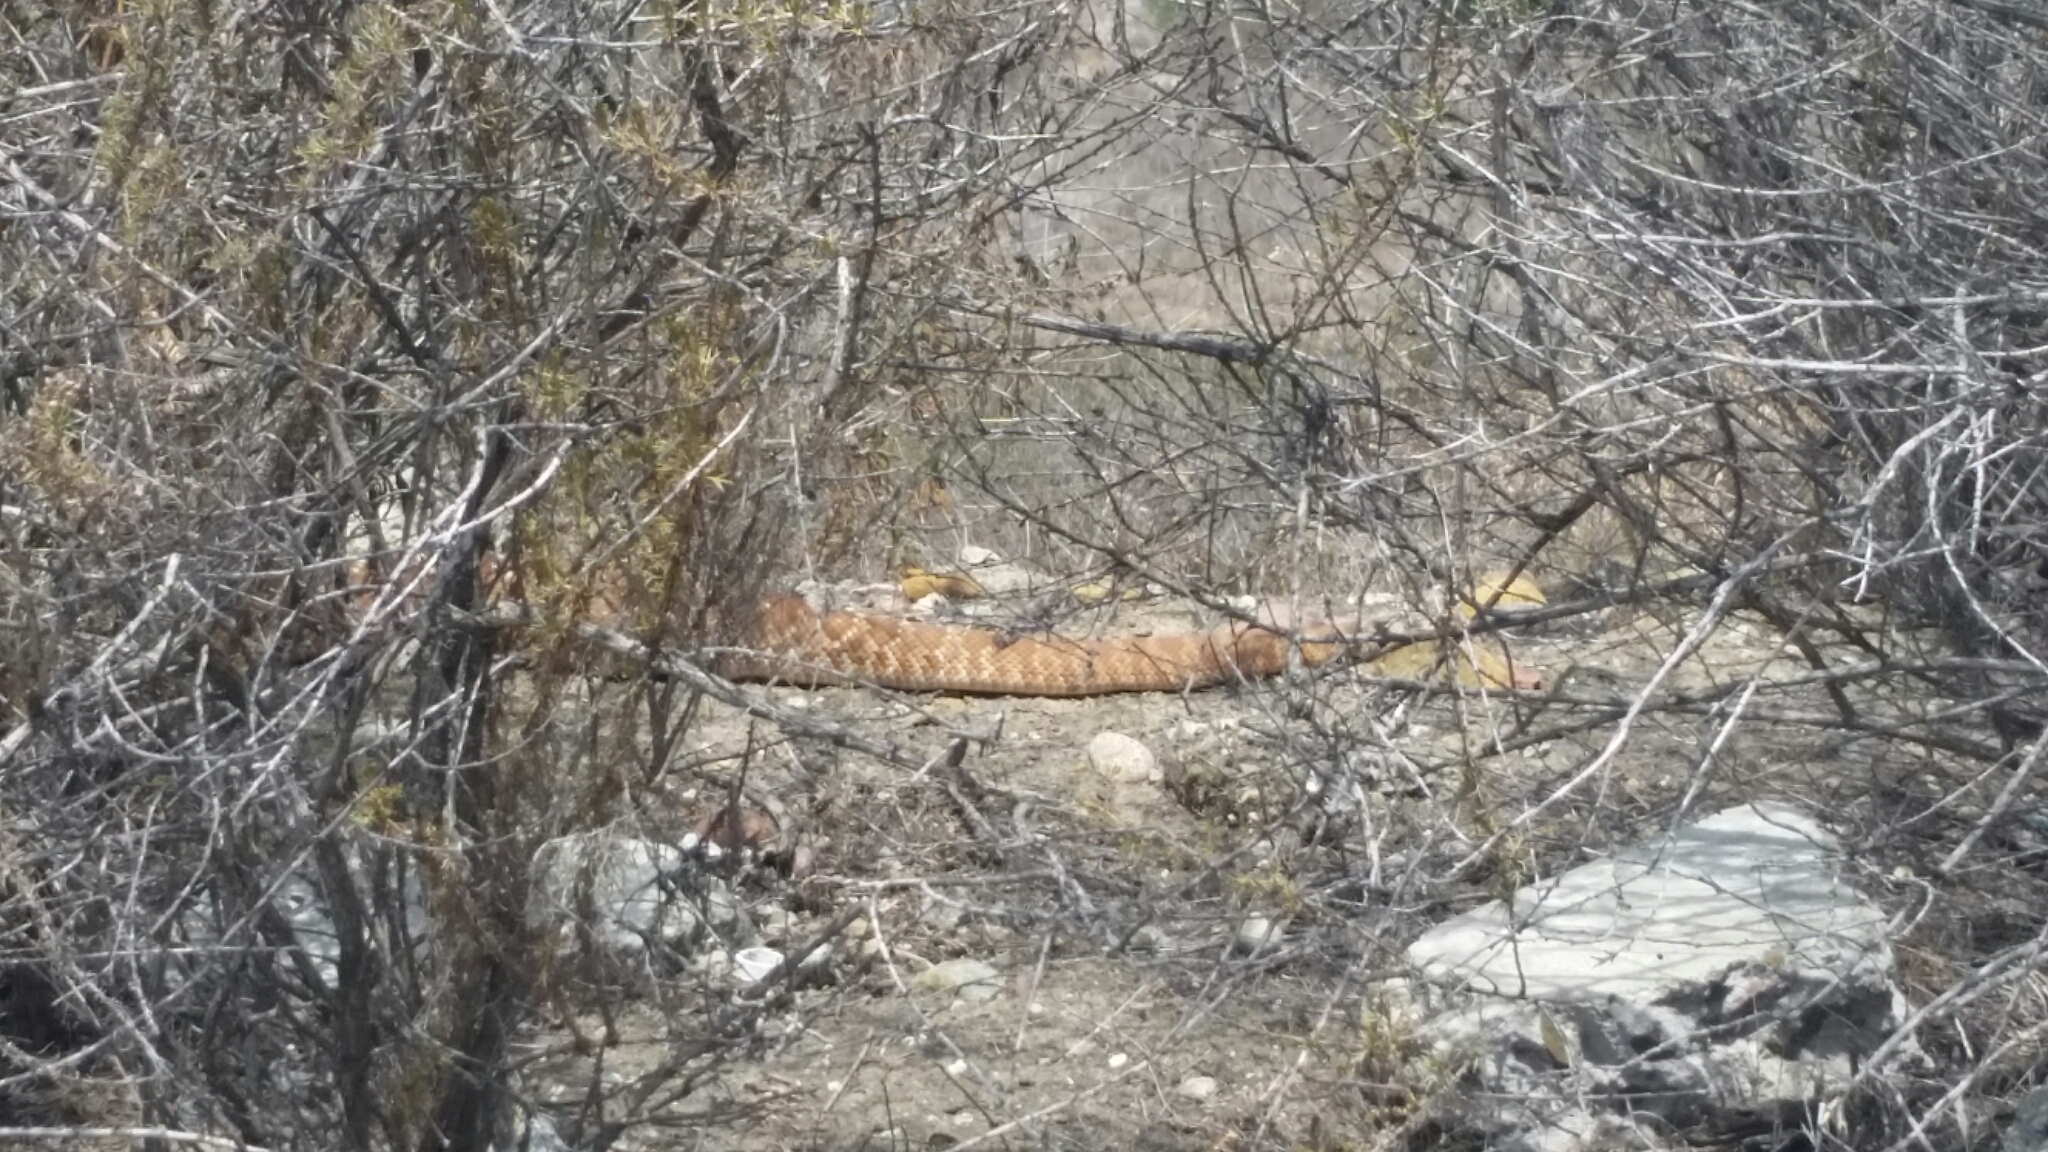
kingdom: Animalia
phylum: Chordata
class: Squamata
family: Viperidae
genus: Crotalus
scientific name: Crotalus ruber
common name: Red diamond rattlesnake
